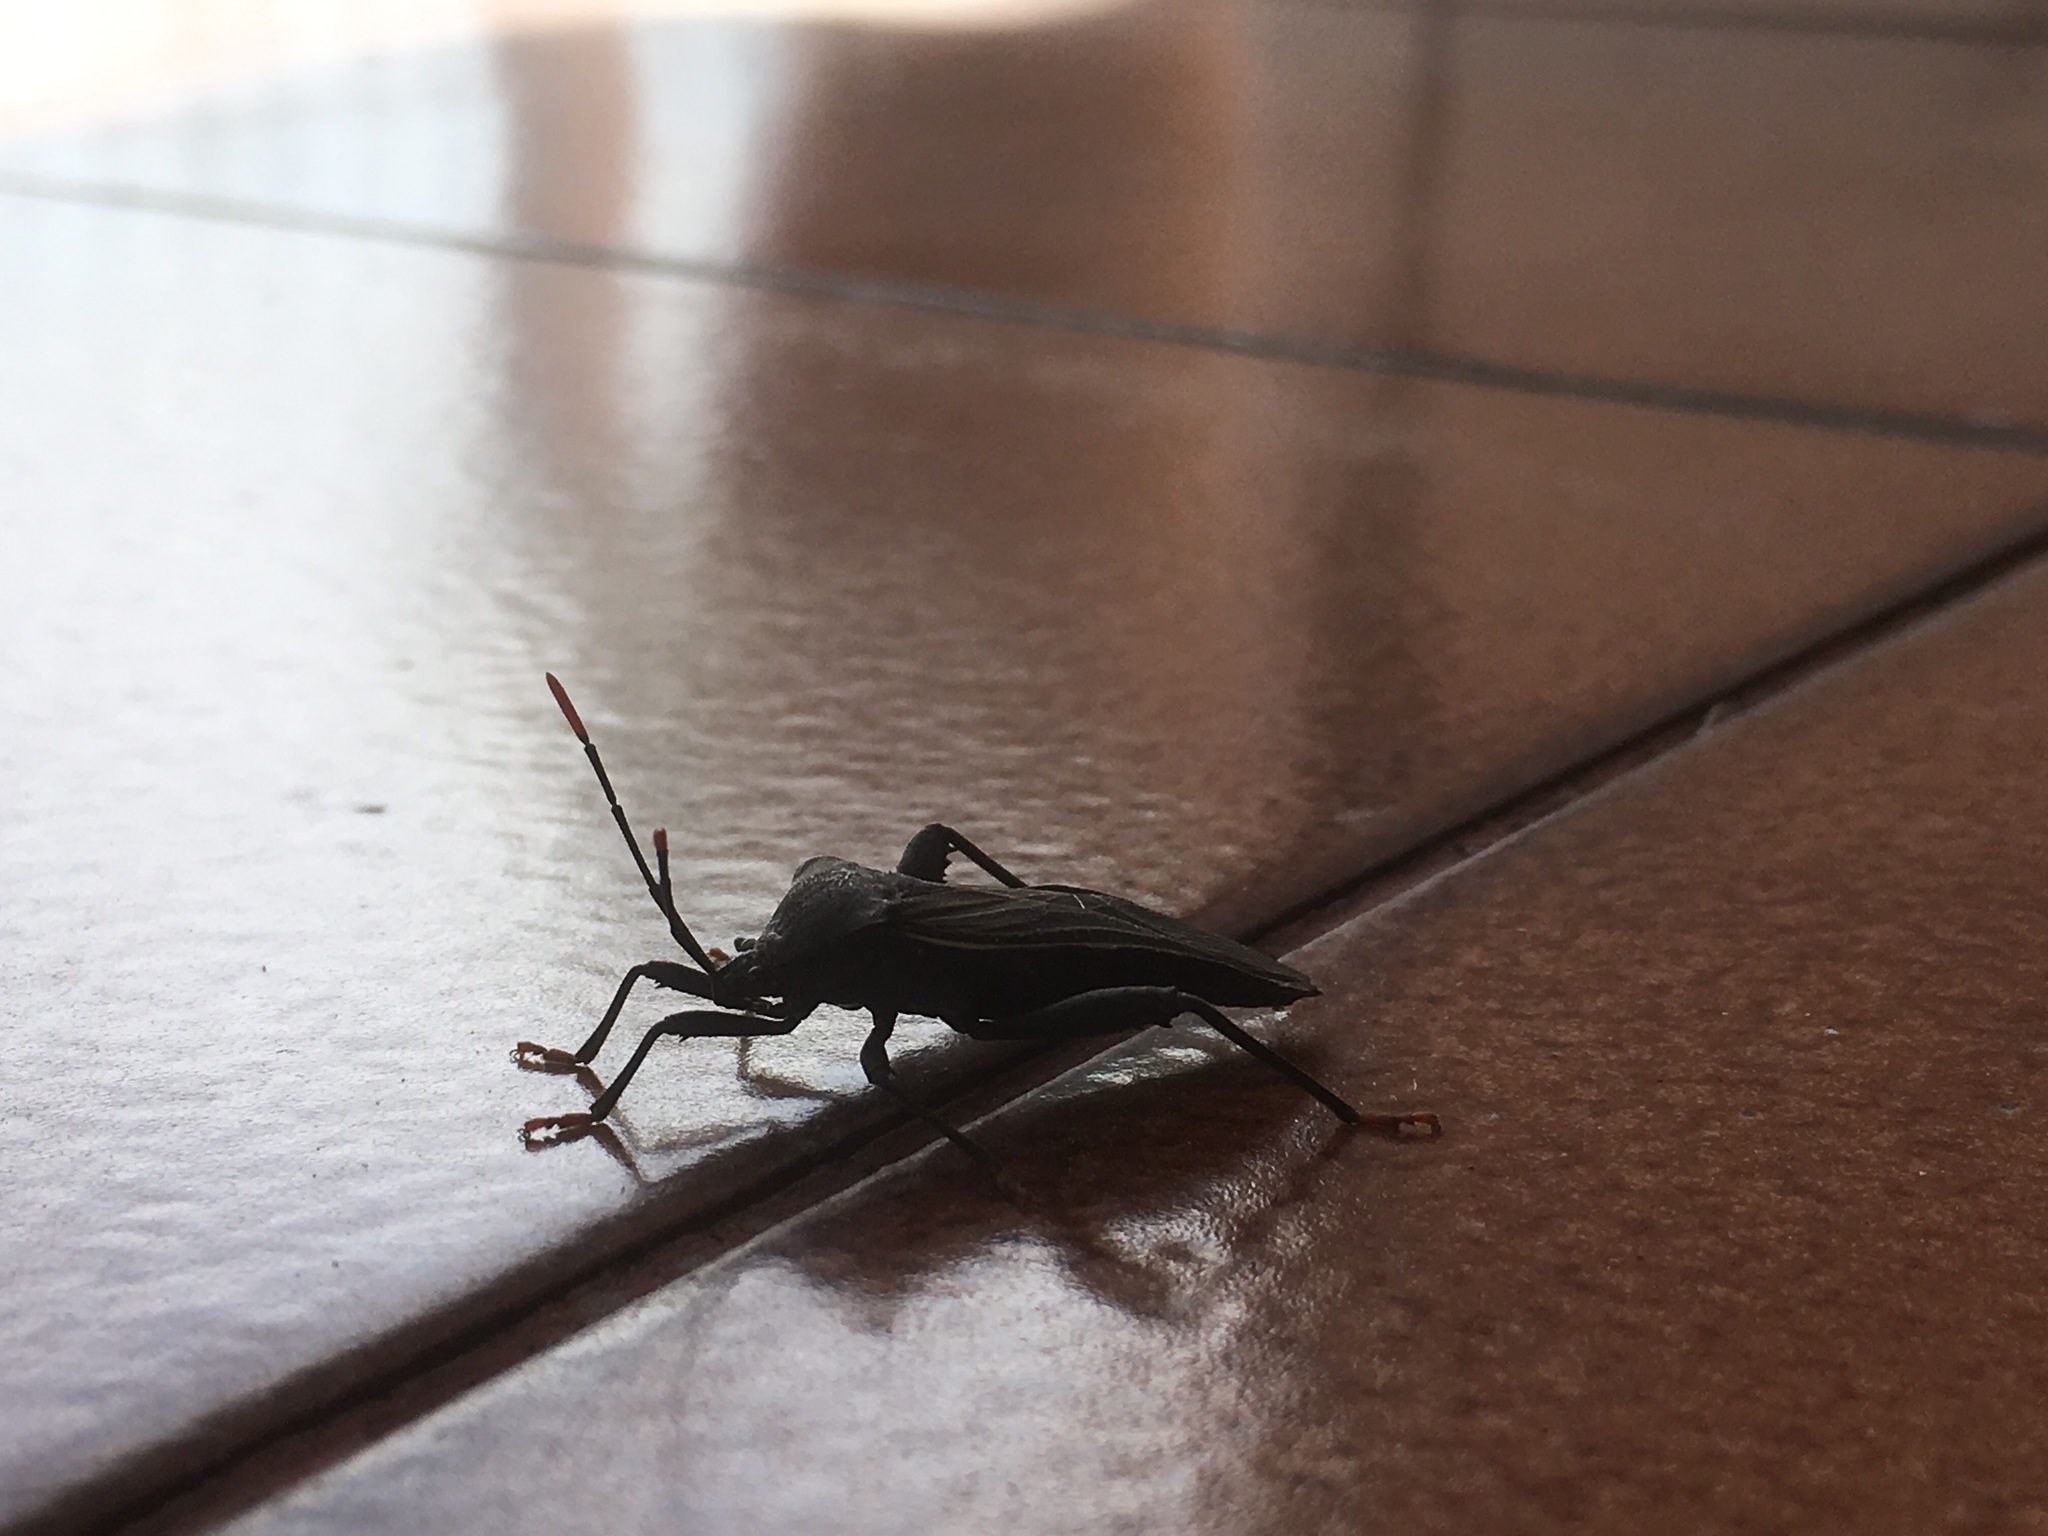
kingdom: Animalia
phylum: Arthropoda
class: Insecta
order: Hemiptera
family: Coreidae
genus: Piezogaster
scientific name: Piezogaster vates
